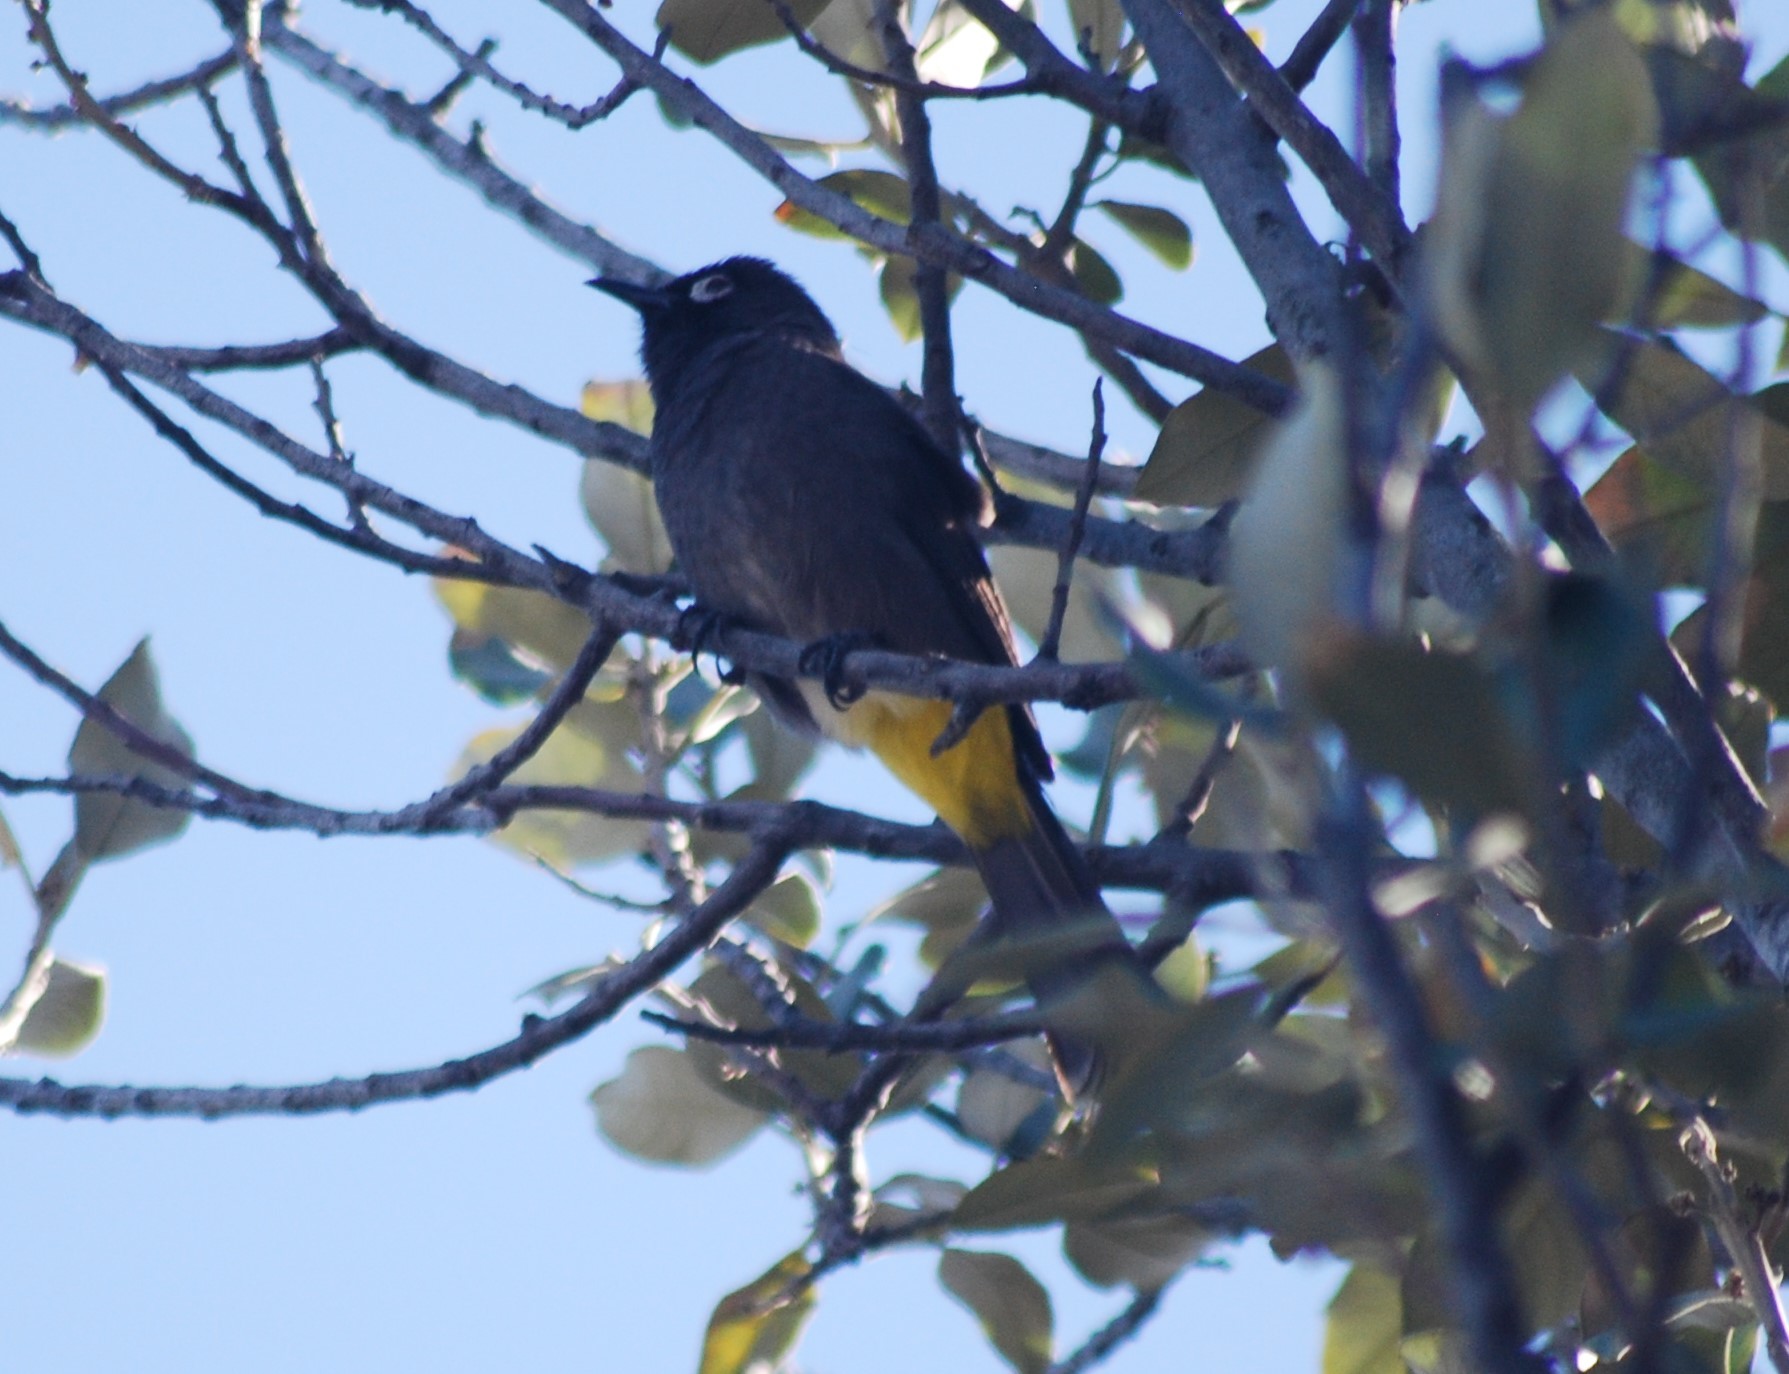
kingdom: Animalia
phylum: Chordata
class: Aves
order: Passeriformes
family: Pycnonotidae
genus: Pycnonotus
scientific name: Pycnonotus capensis
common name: Cape bulbul
